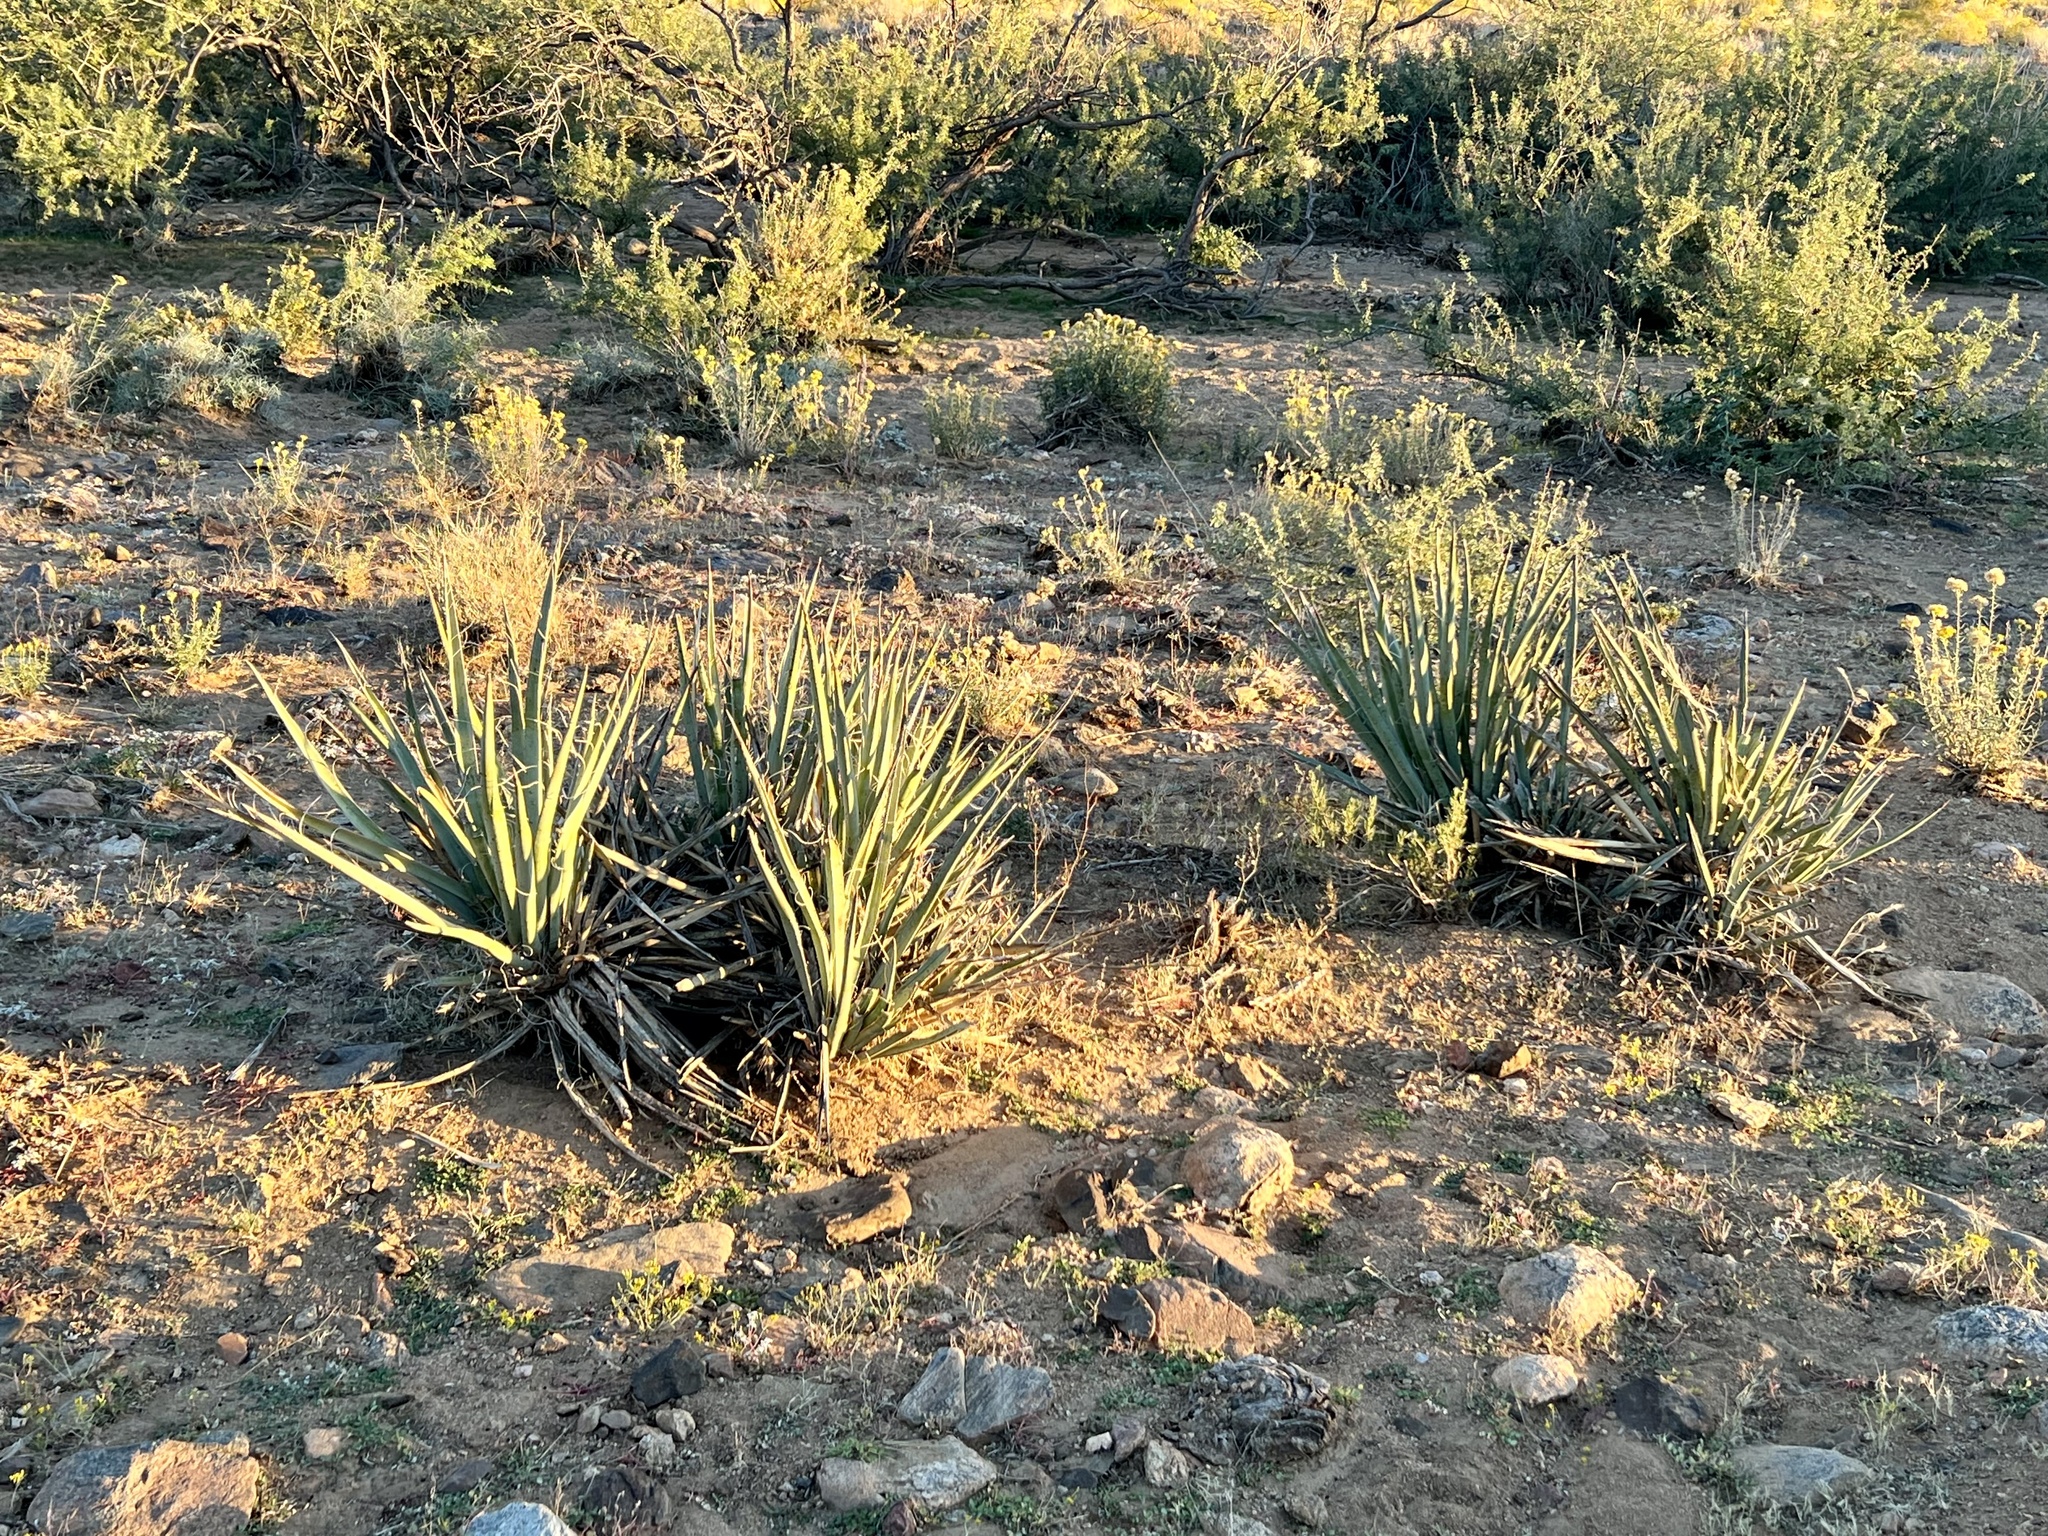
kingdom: Plantae
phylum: Tracheophyta
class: Liliopsida
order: Asparagales
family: Asparagaceae
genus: Yucca
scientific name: Yucca baccata
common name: Banana yucca
